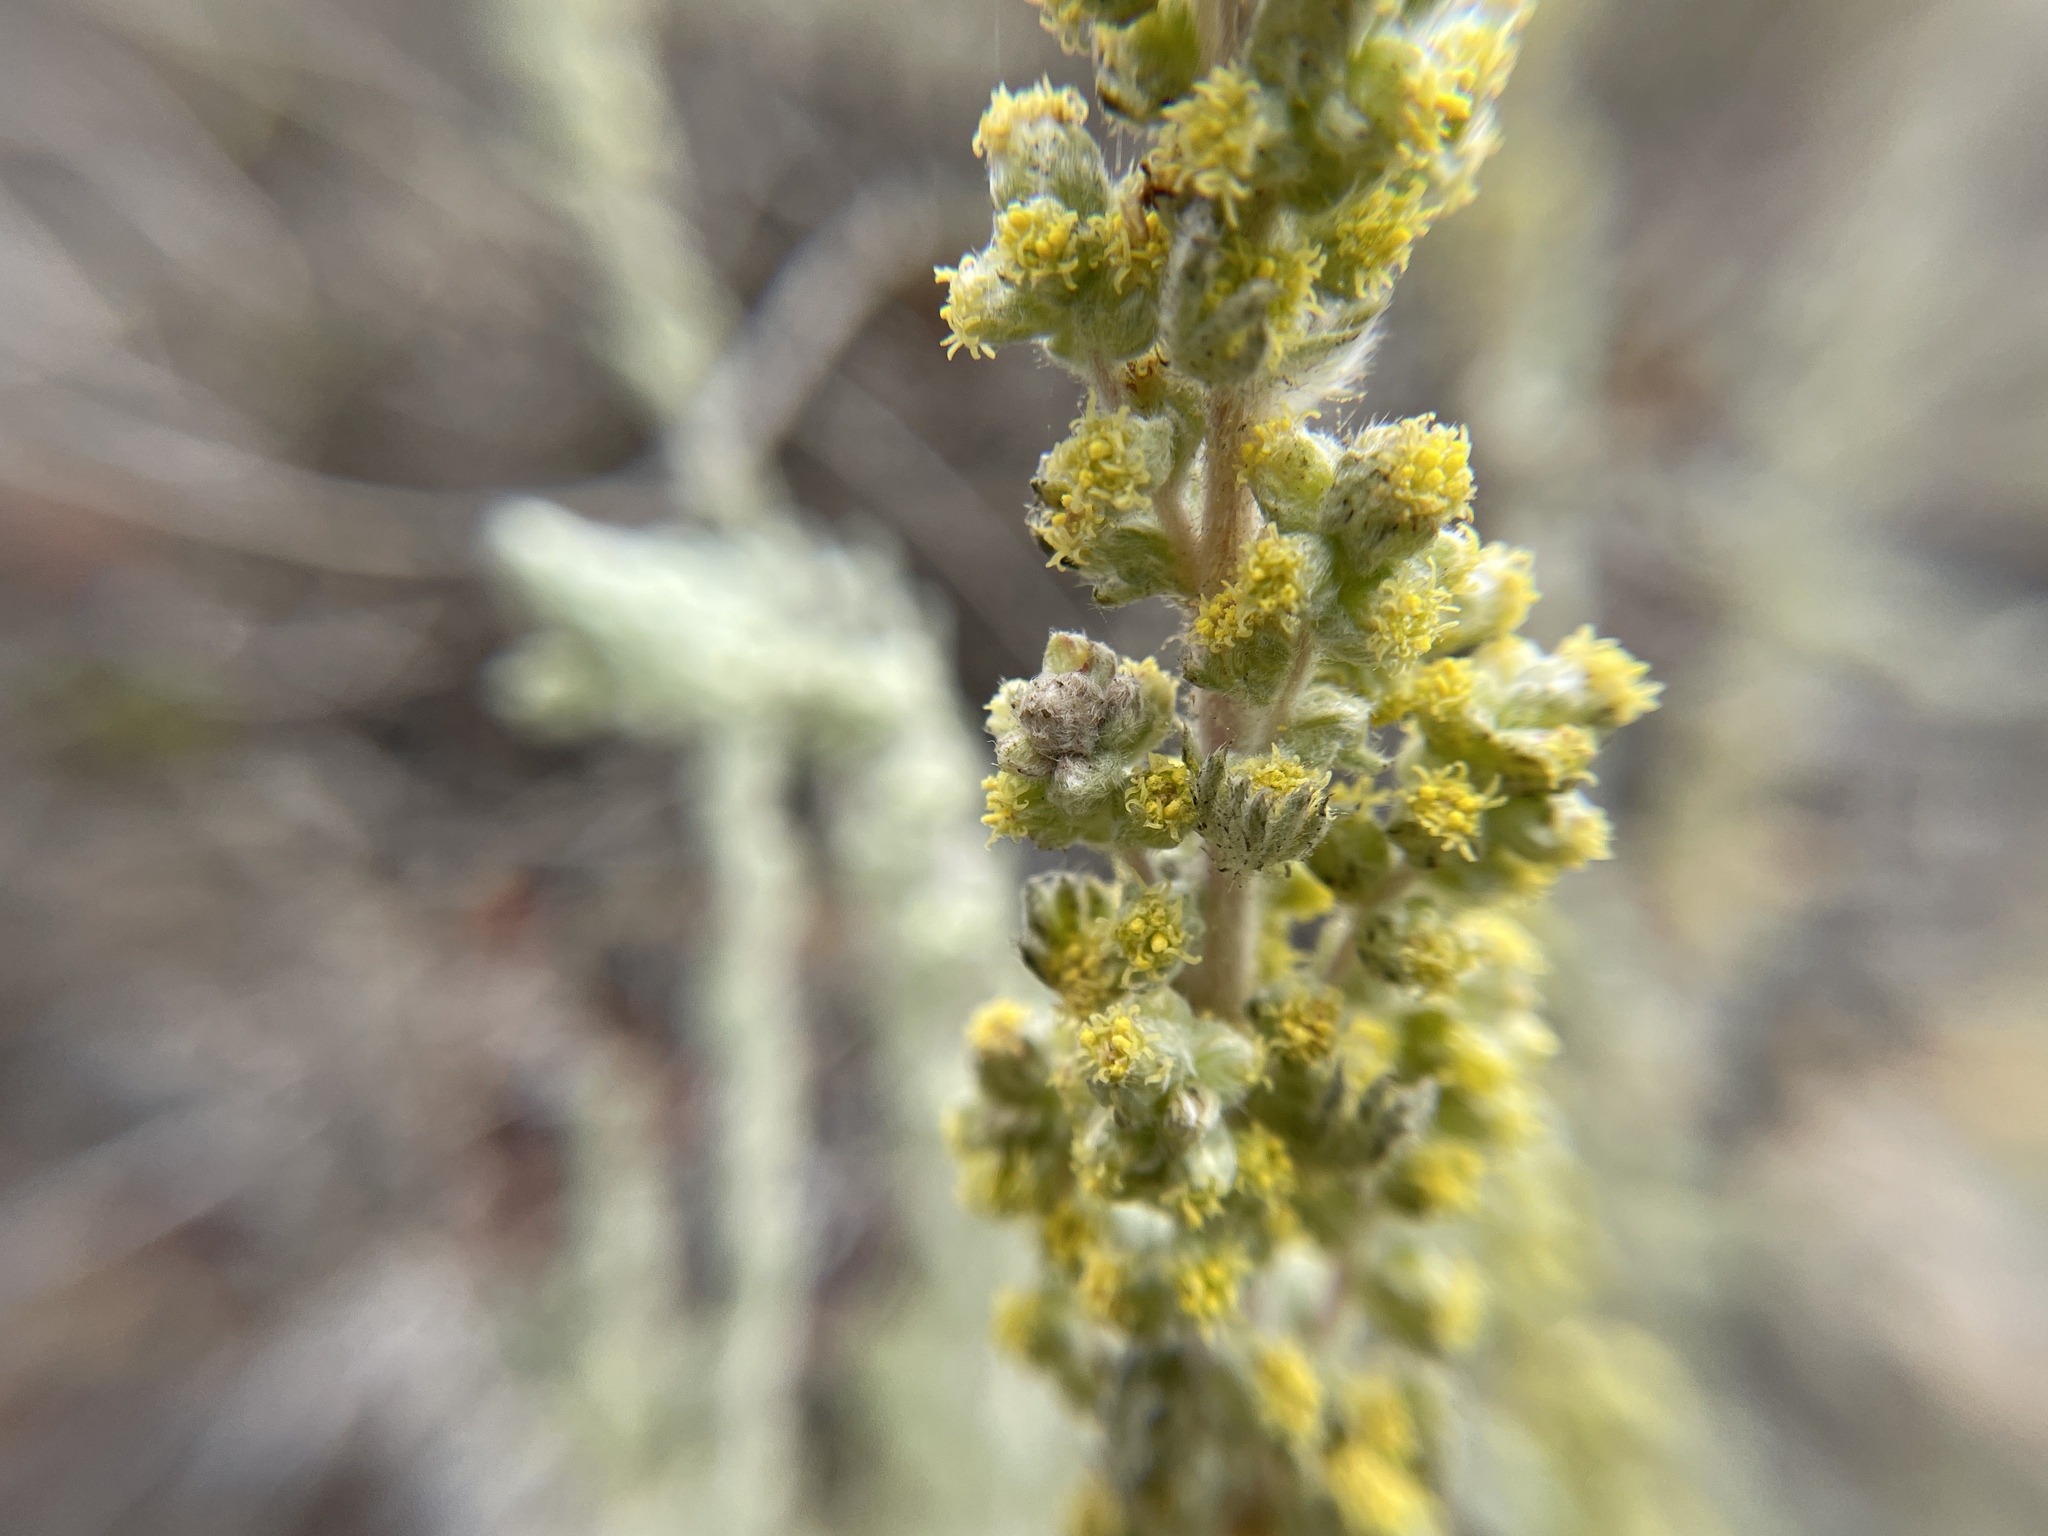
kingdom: Plantae
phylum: Tracheophyta
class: Magnoliopsida
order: Asterales
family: Asteraceae
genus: Artemisia
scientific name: Artemisia pycnocephala
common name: Coastal sagewort
